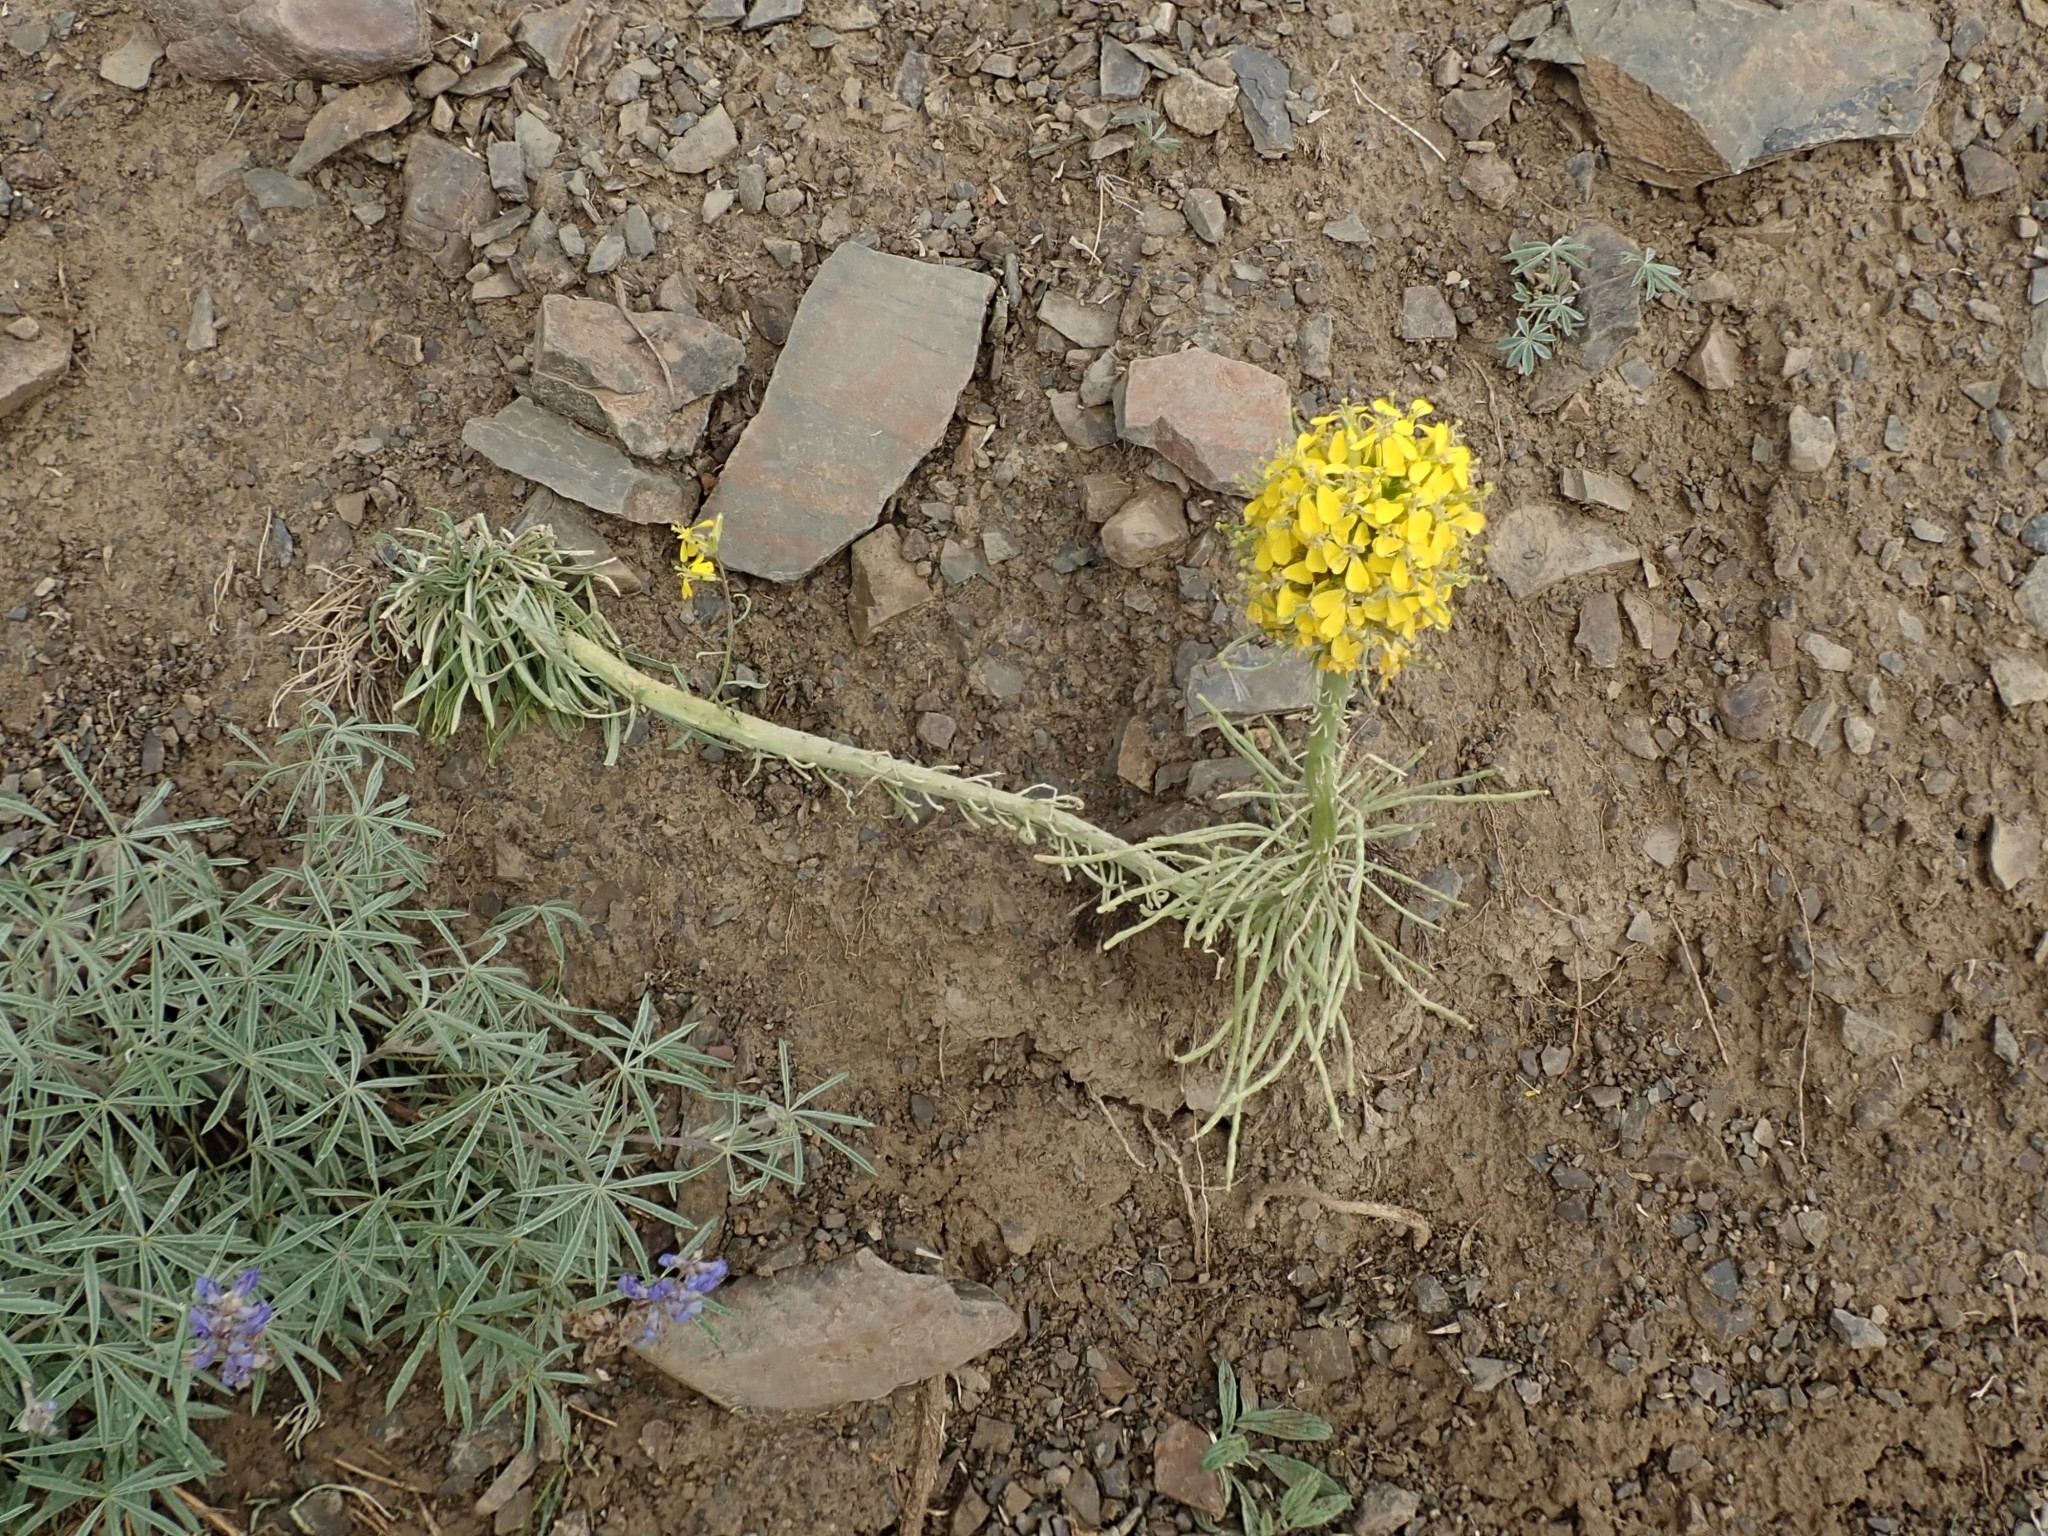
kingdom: Plantae
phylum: Tracheophyta
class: Magnoliopsida
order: Brassicales
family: Brassicaceae
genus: Erysimum
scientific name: Erysimum capitatum
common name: Western wallflower
